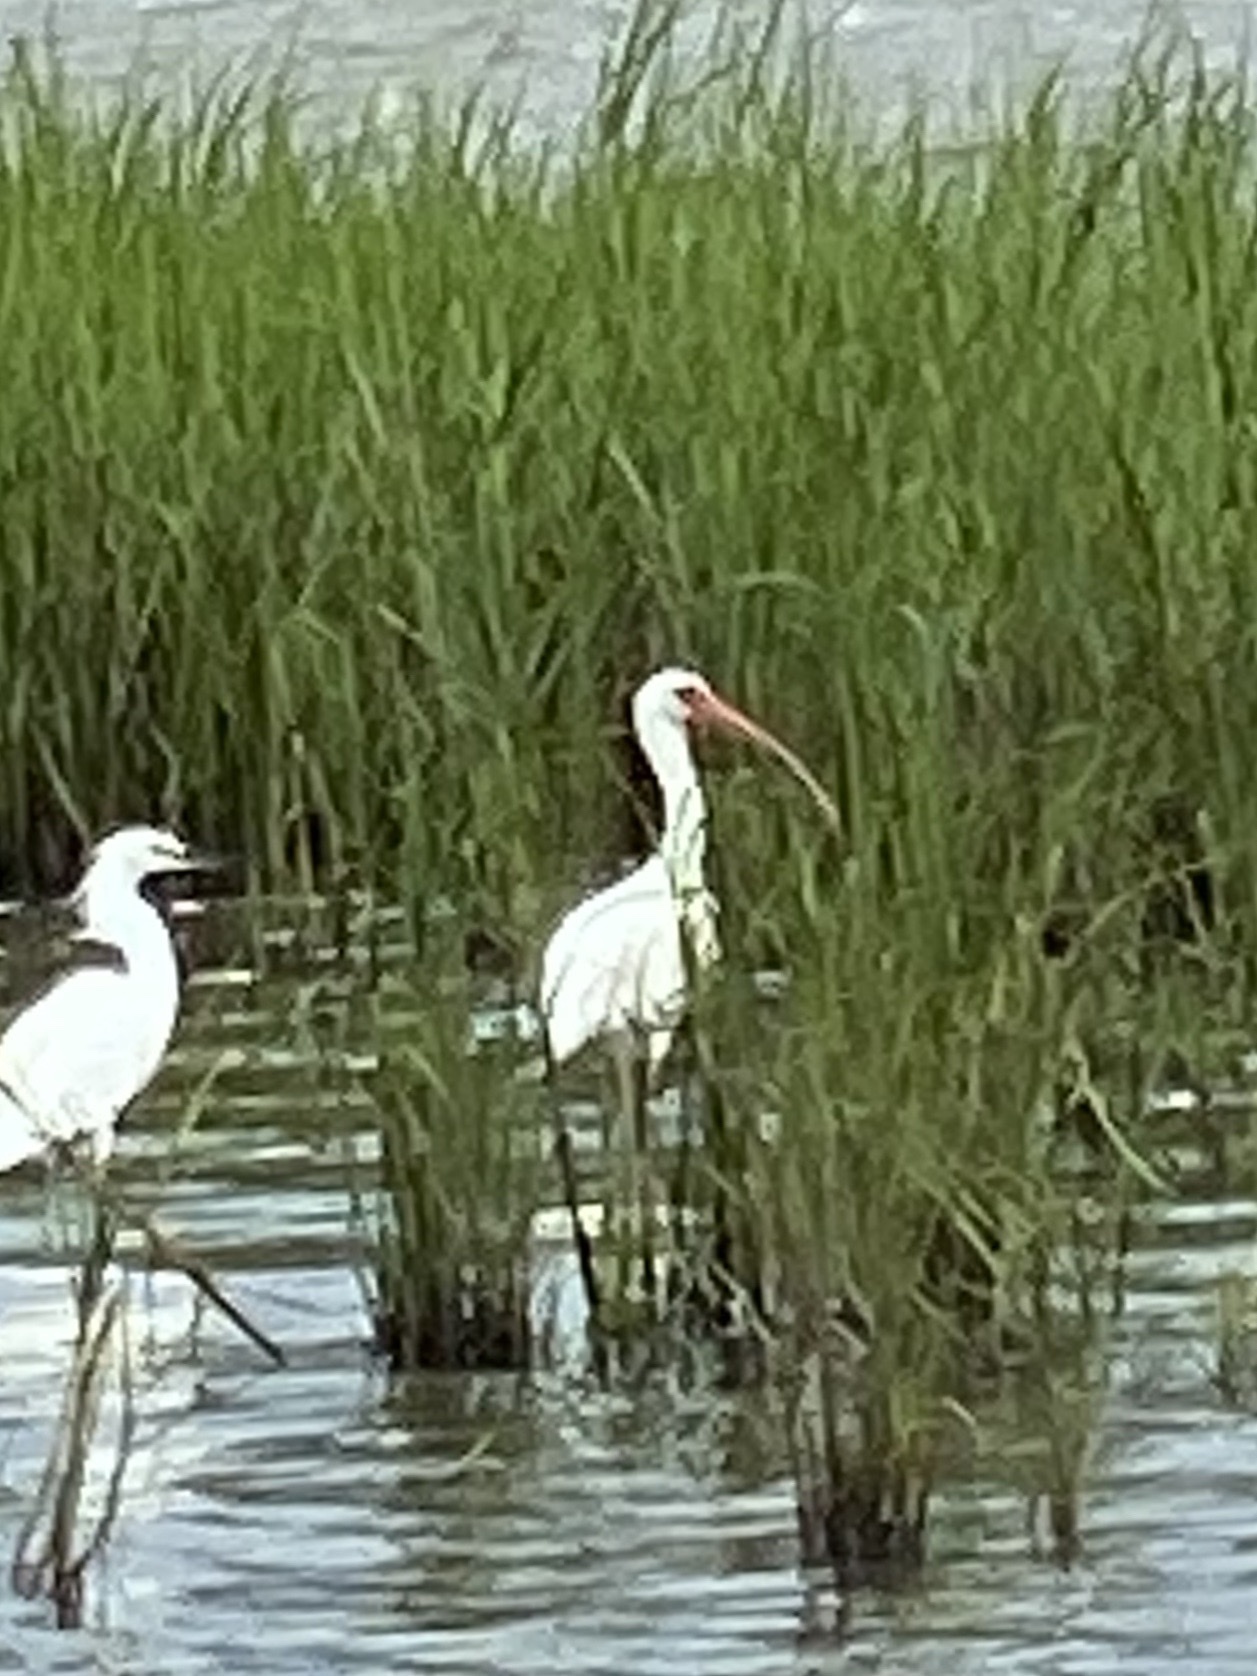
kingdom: Animalia
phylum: Chordata
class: Aves
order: Pelecaniformes
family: Threskiornithidae
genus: Eudocimus
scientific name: Eudocimus albus
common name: White ibis
